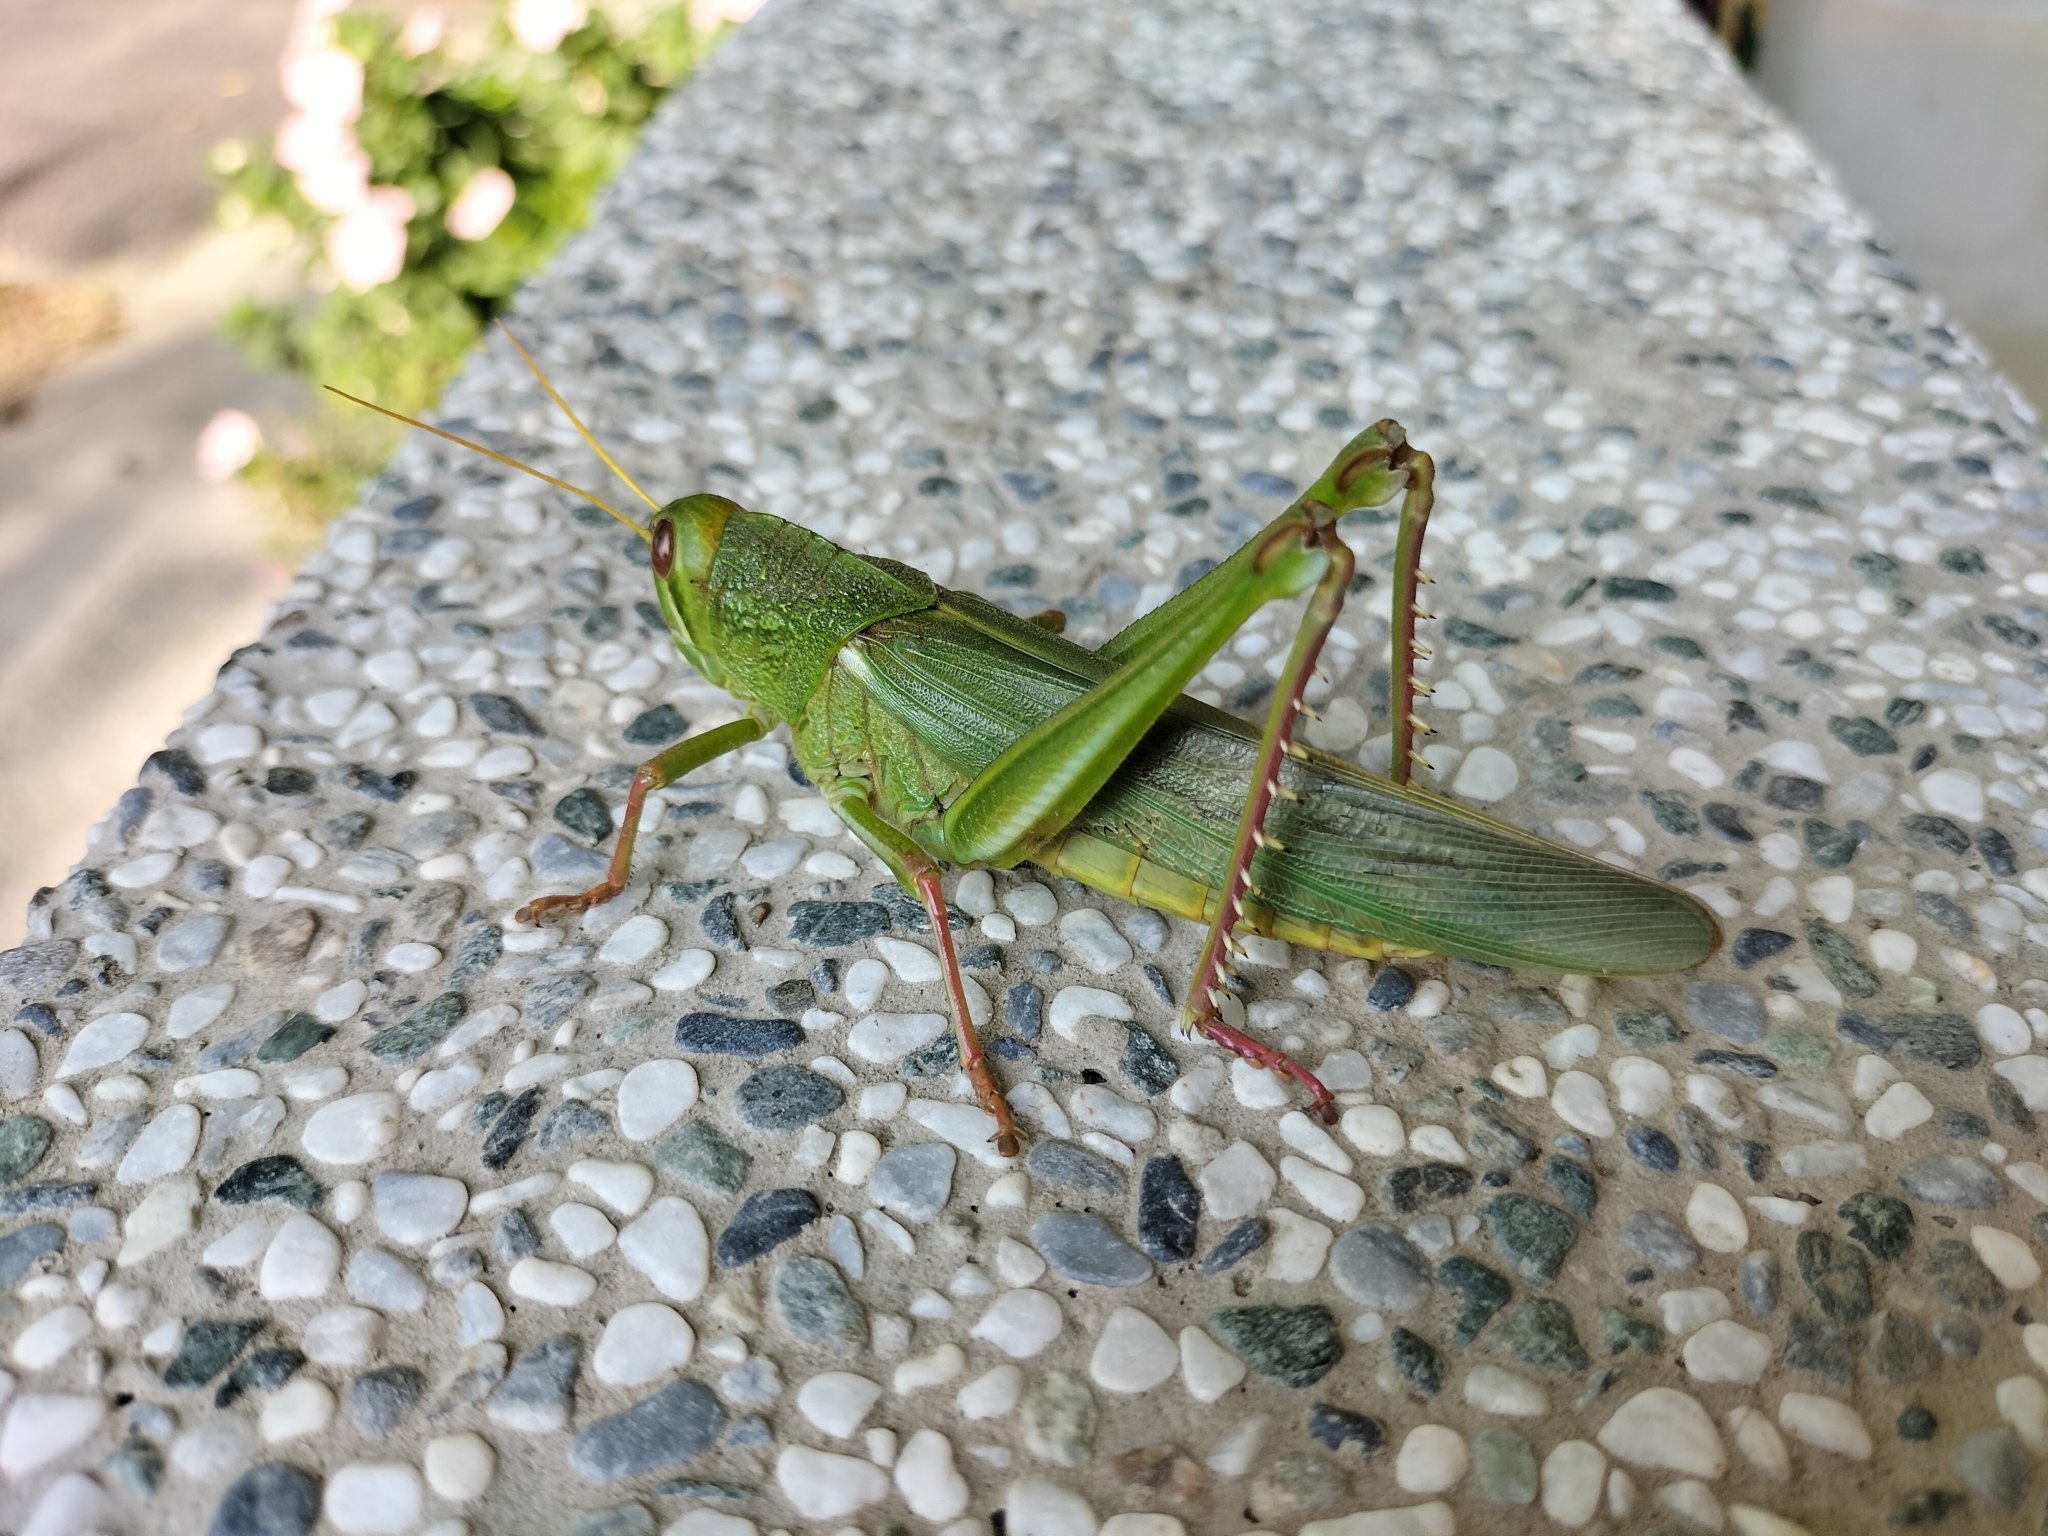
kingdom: Animalia
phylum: Arthropoda
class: Insecta
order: Orthoptera
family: Acrididae
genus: Chondracris
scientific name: Chondracris rosea
